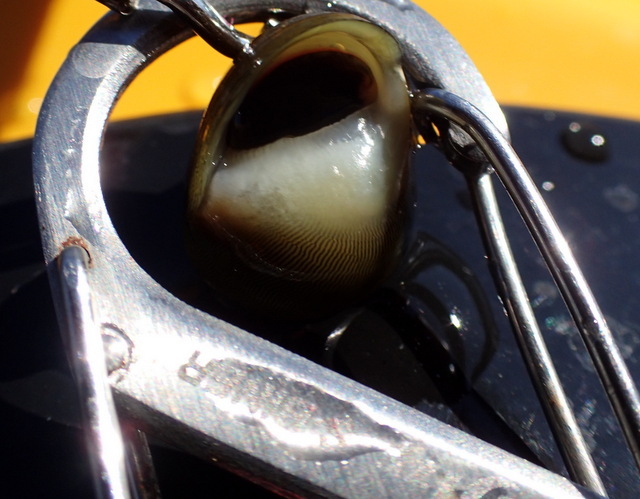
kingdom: Animalia
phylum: Mollusca
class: Gastropoda
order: Cycloneritida
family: Neritidae
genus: Vitta
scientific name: Vitta usnea
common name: Olive nerite
